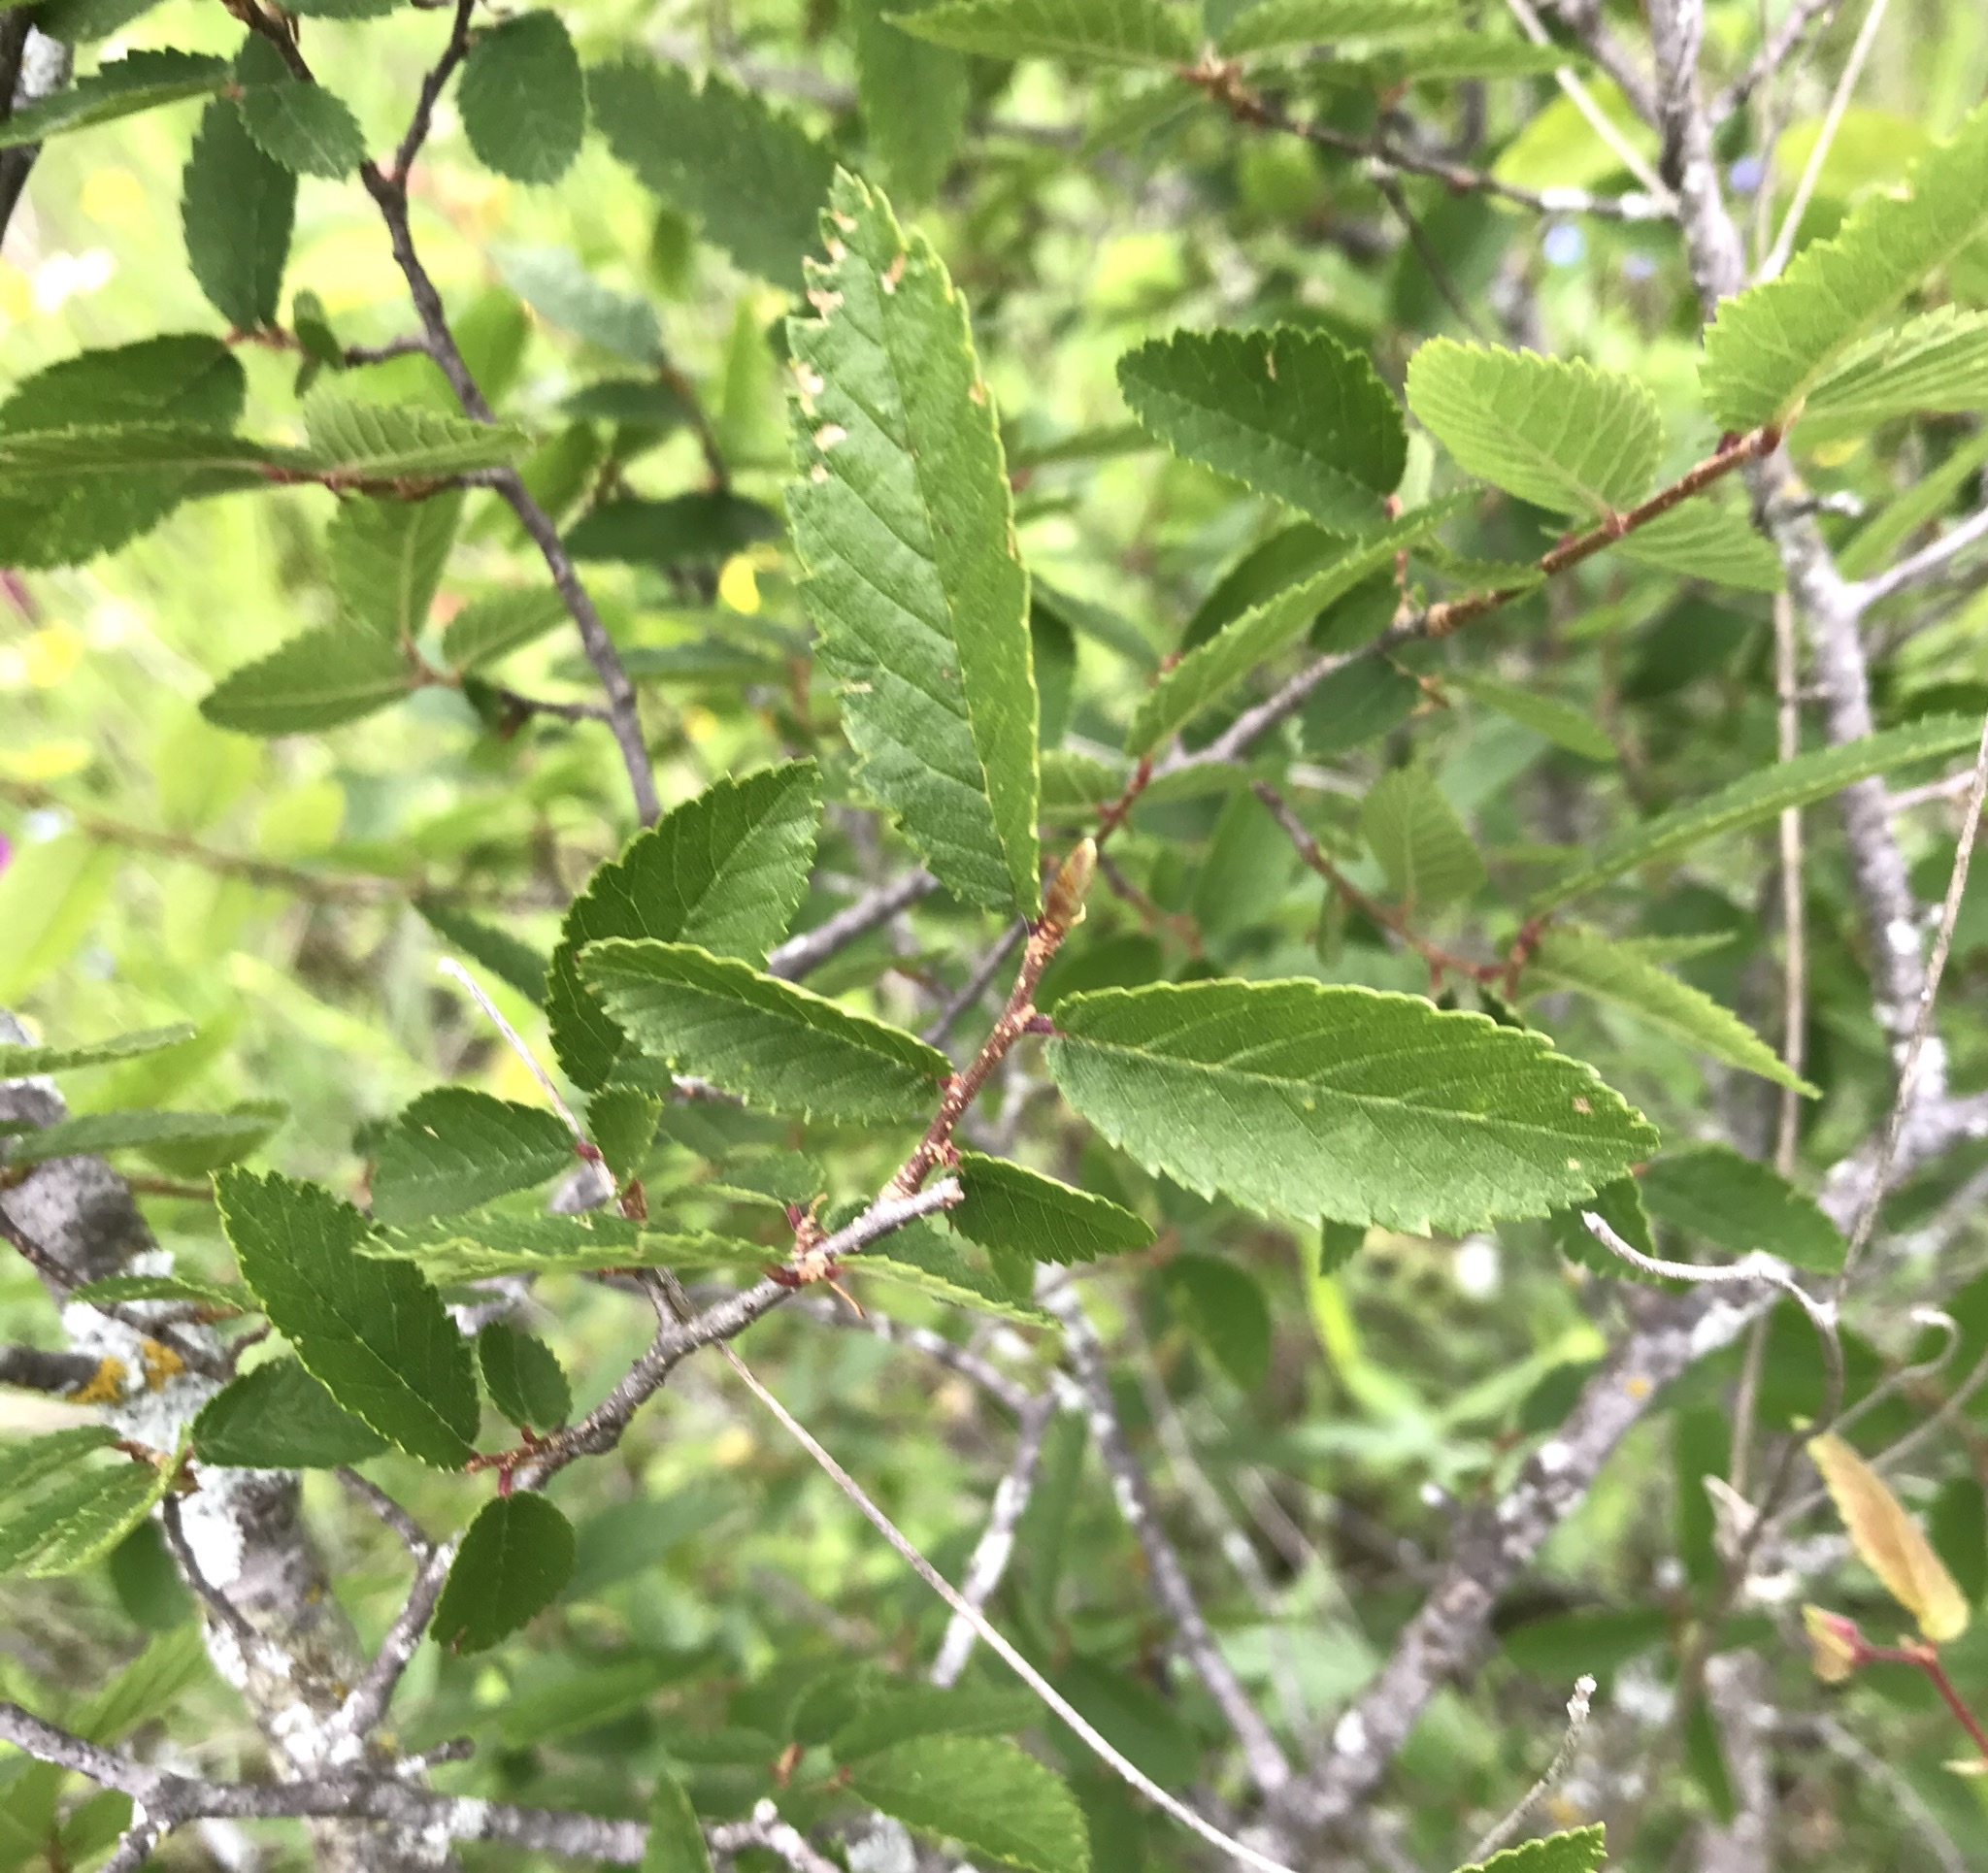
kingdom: Plantae
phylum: Tracheophyta
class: Magnoliopsida
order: Rosales
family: Ulmaceae
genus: Ulmus
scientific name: Ulmus crassifolia
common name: Basket elm
